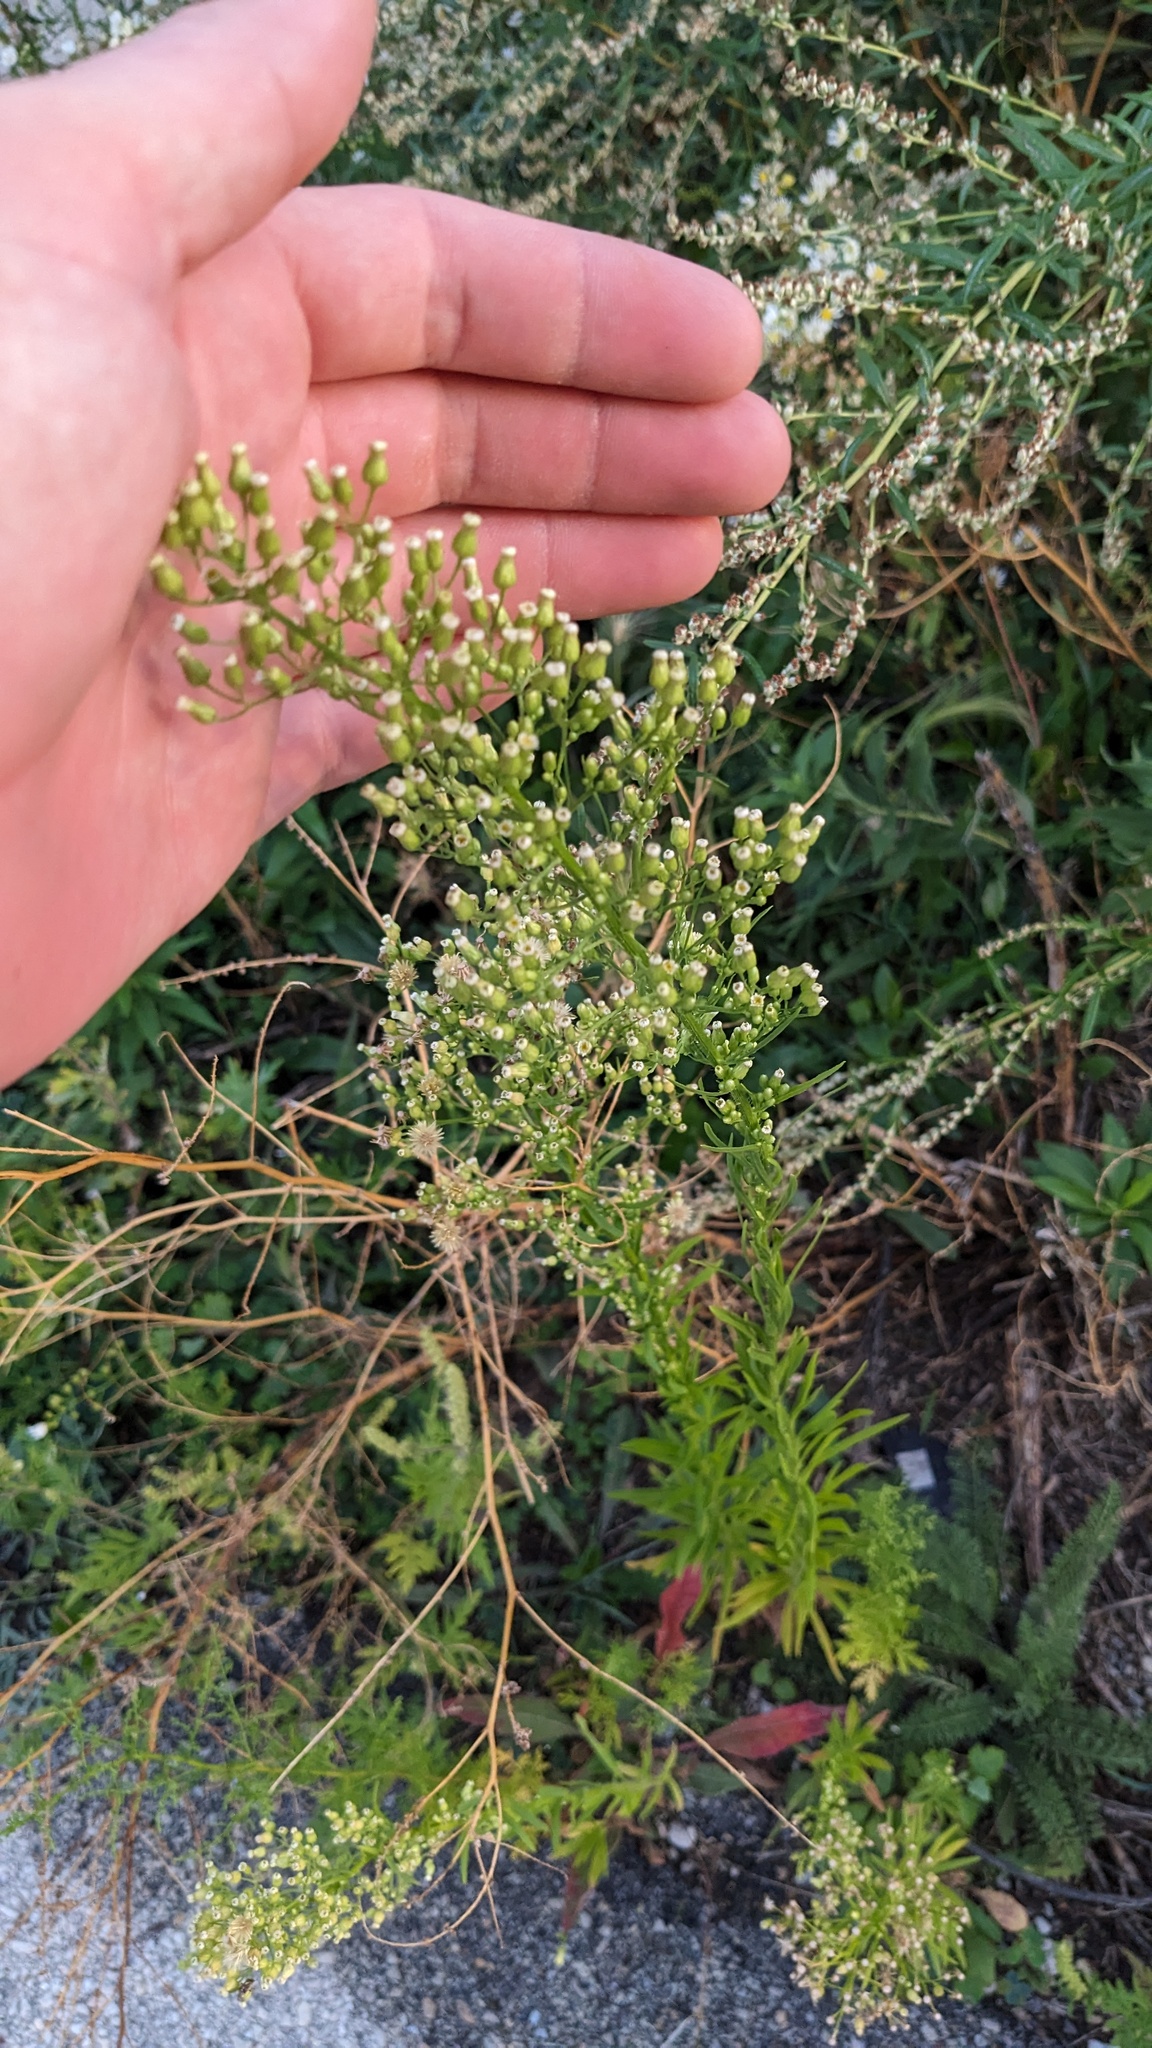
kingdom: Plantae
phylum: Tracheophyta
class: Magnoliopsida
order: Asterales
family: Asteraceae
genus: Erigeron
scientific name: Erigeron canadensis
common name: Canadian fleabane
